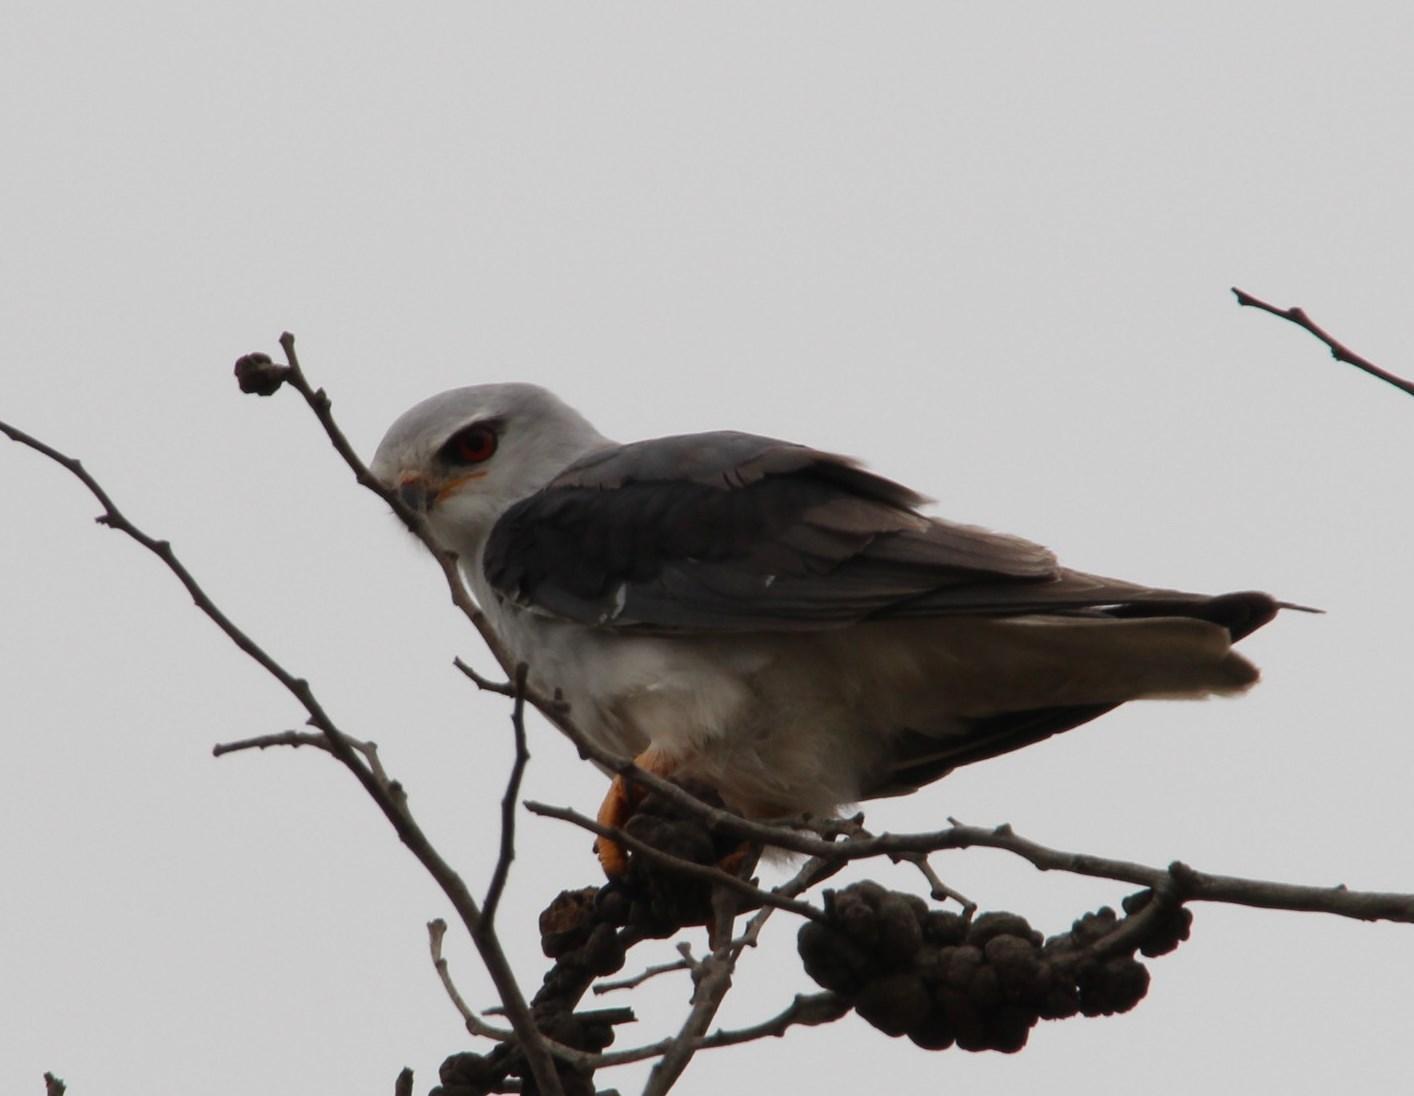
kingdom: Animalia
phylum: Chordata
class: Aves
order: Accipitriformes
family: Accipitridae
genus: Elanus
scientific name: Elanus caeruleus
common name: Black-winged kite
